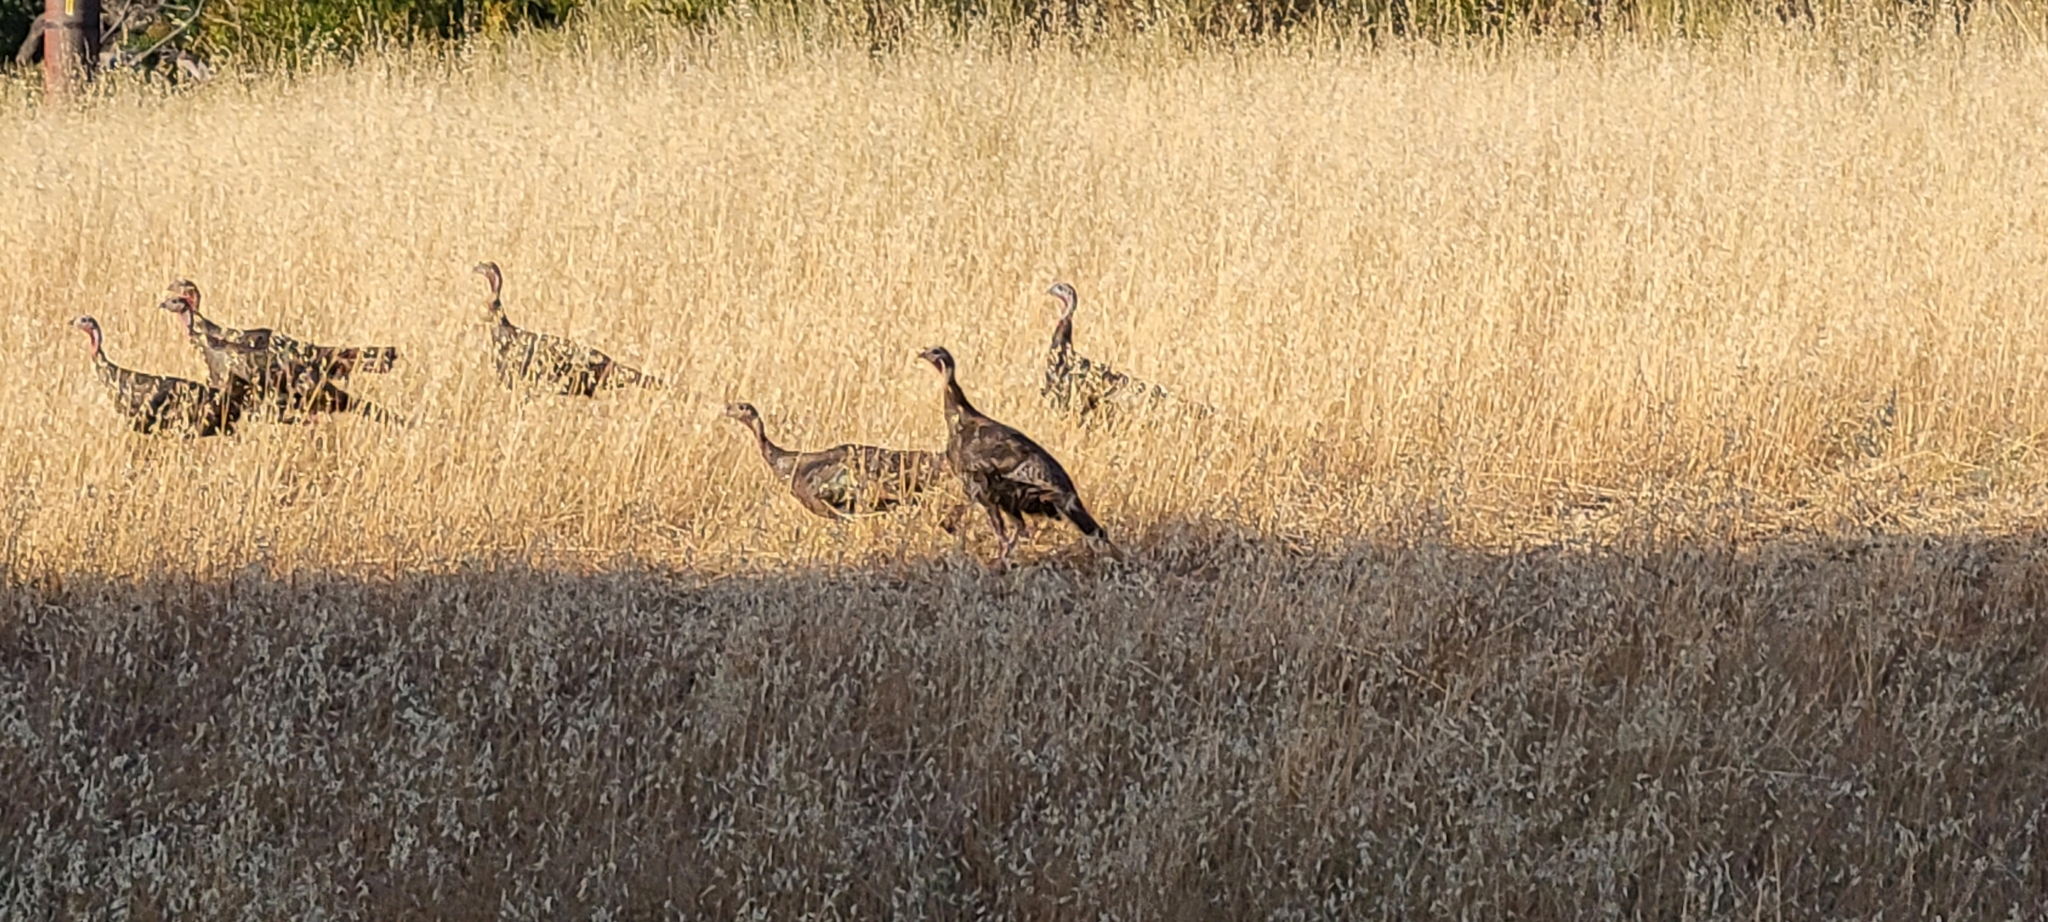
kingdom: Animalia
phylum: Chordata
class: Aves
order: Galliformes
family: Phasianidae
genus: Meleagris
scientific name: Meleagris gallopavo
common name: Wild turkey
